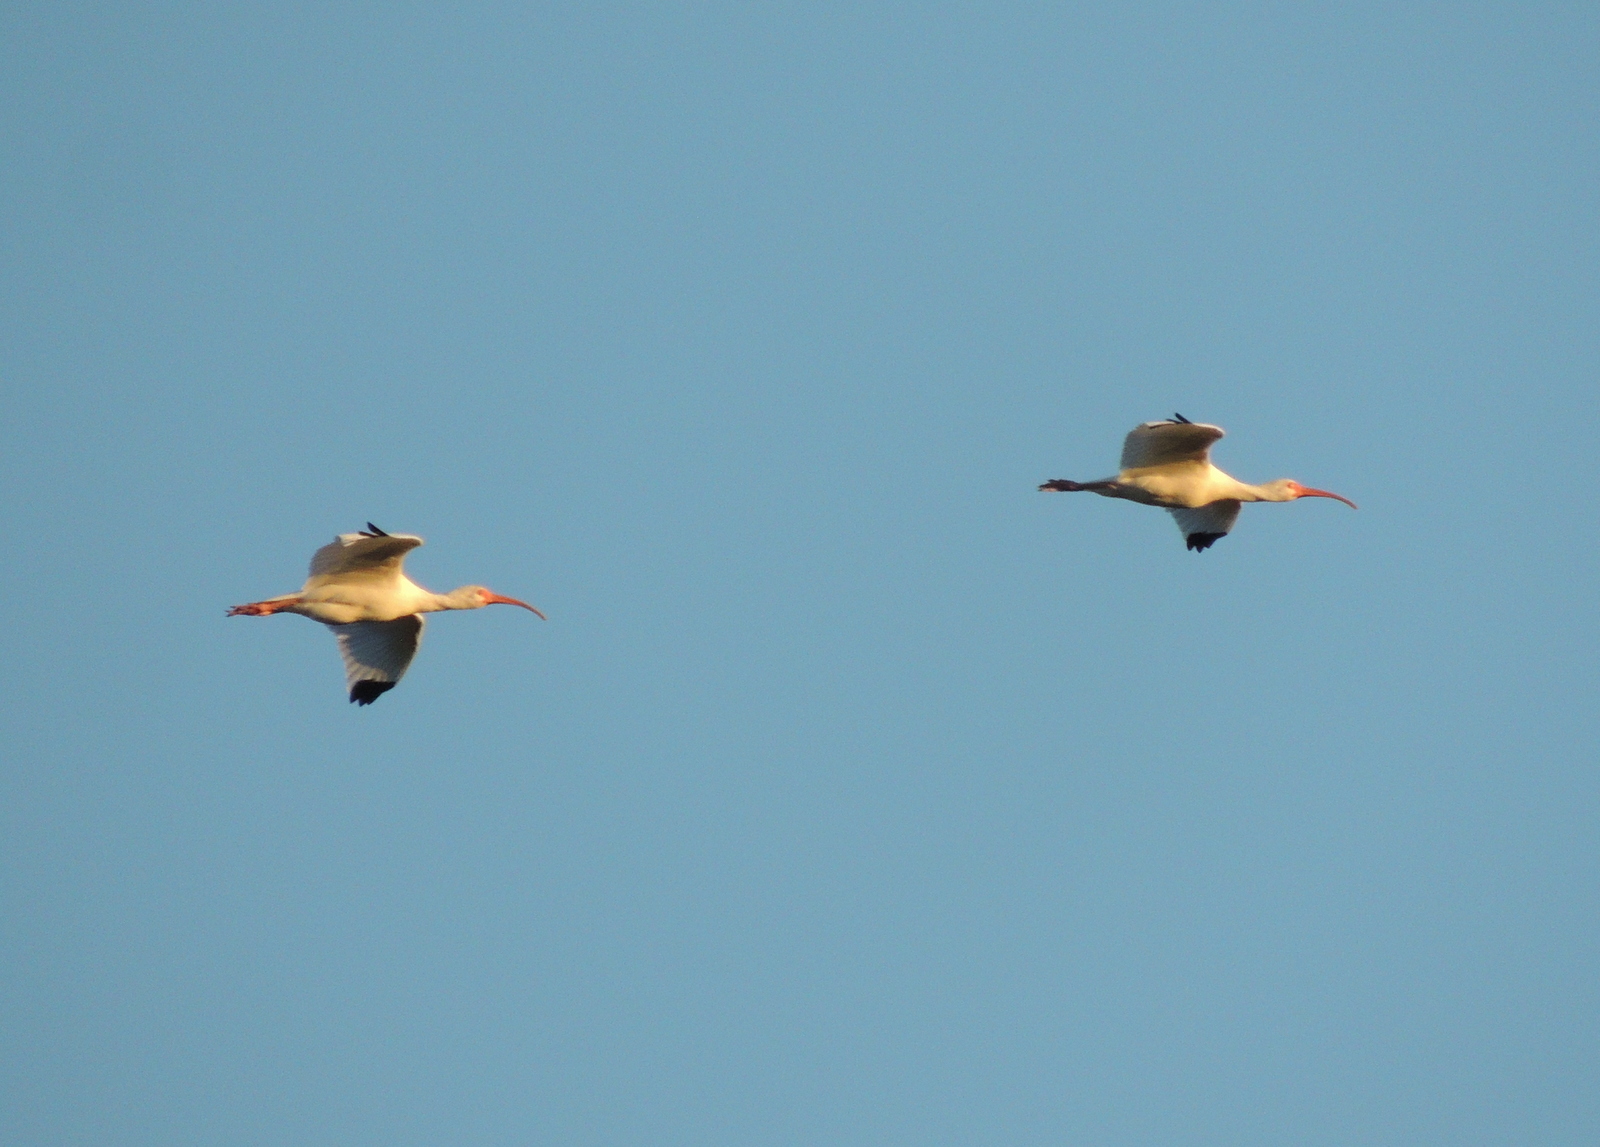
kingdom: Animalia
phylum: Chordata
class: Aves
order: Pelecaniformes
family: Threskiornithidae
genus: Eudocimus
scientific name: Eudocimus albus
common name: White ibis
